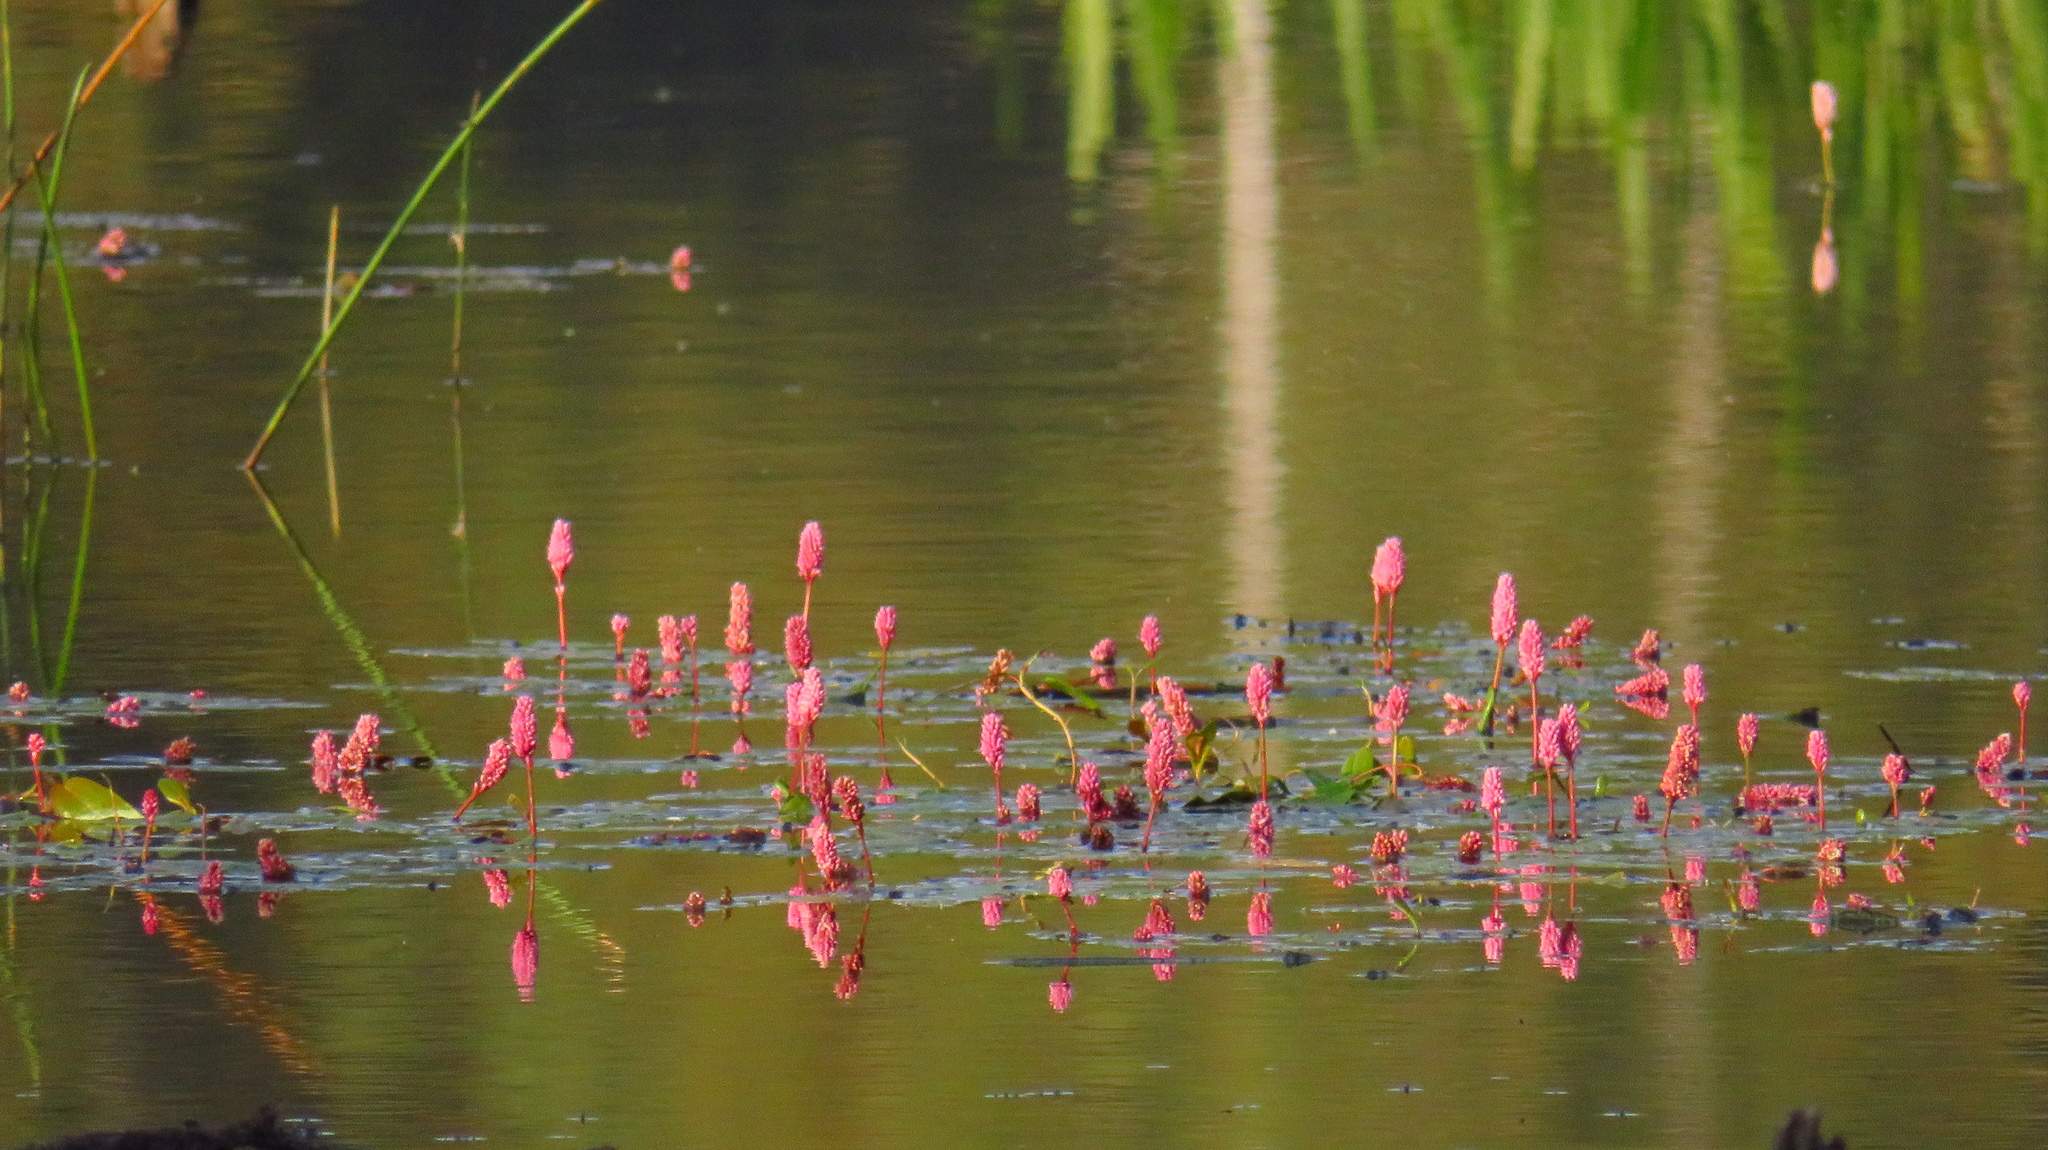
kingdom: Plantae
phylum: Tracheophyta
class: Magnoliopsida
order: Caryophyllales
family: Polygonaceae
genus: Persicaria
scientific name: Persicaria amphibia
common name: Amphibious bistort
